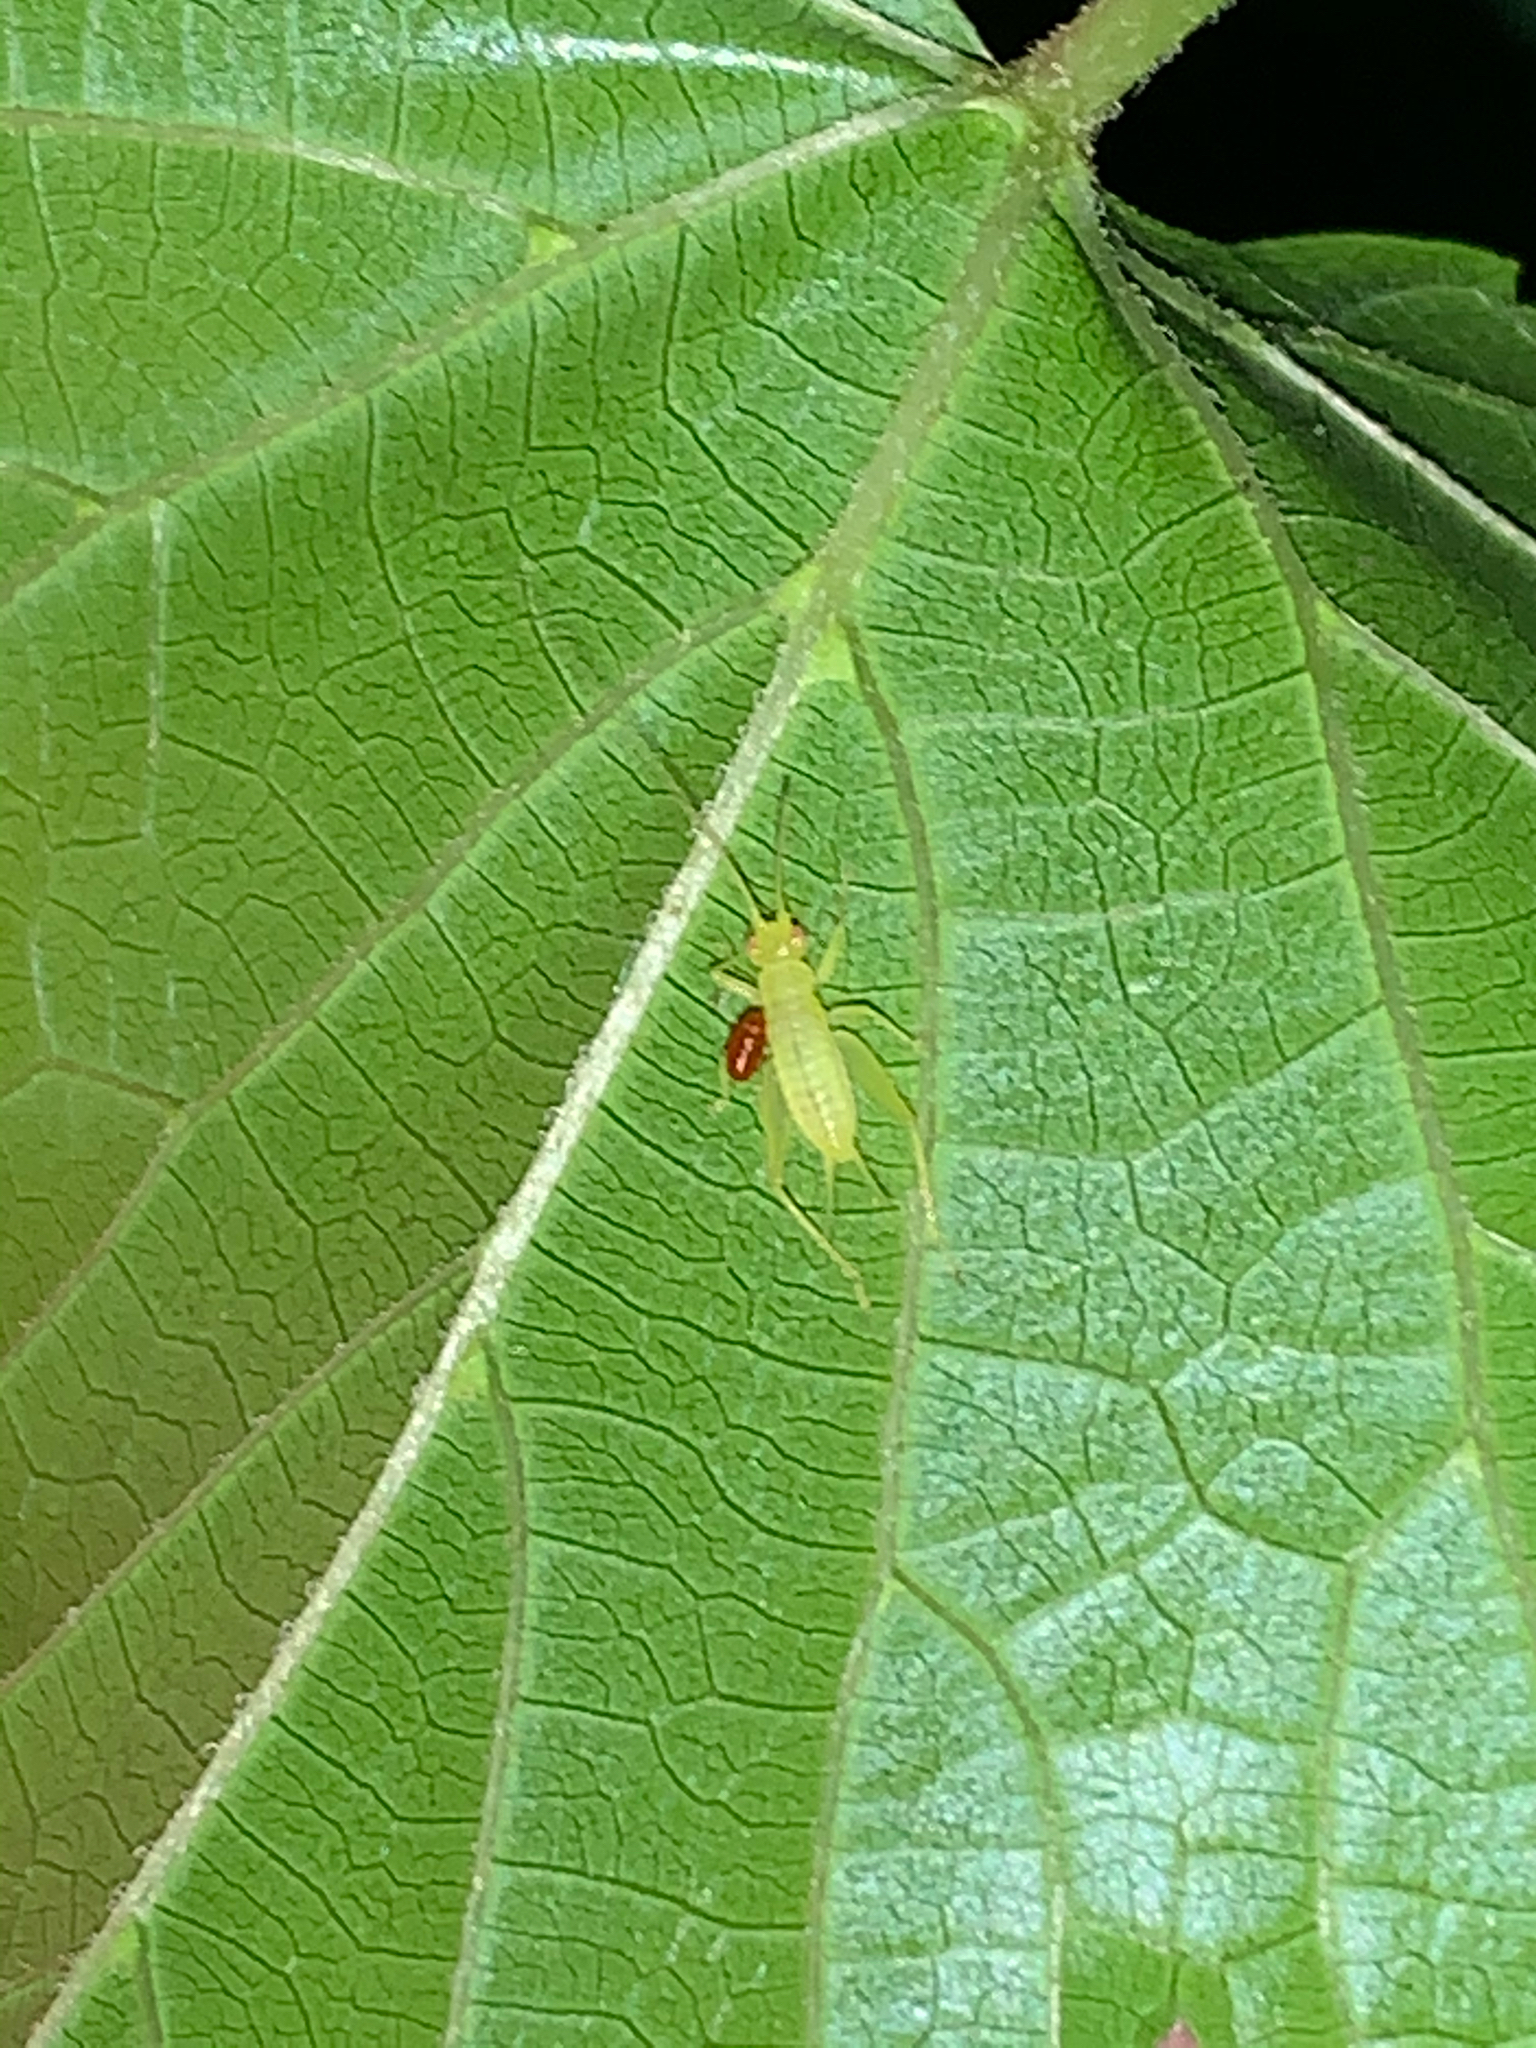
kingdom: Animalia
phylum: Arthropoda
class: Insecta
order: Orthoptera
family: Trigonidiidae
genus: Cyrtoxipha
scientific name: Cyrtoxipha columbiana
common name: Columbian trig
